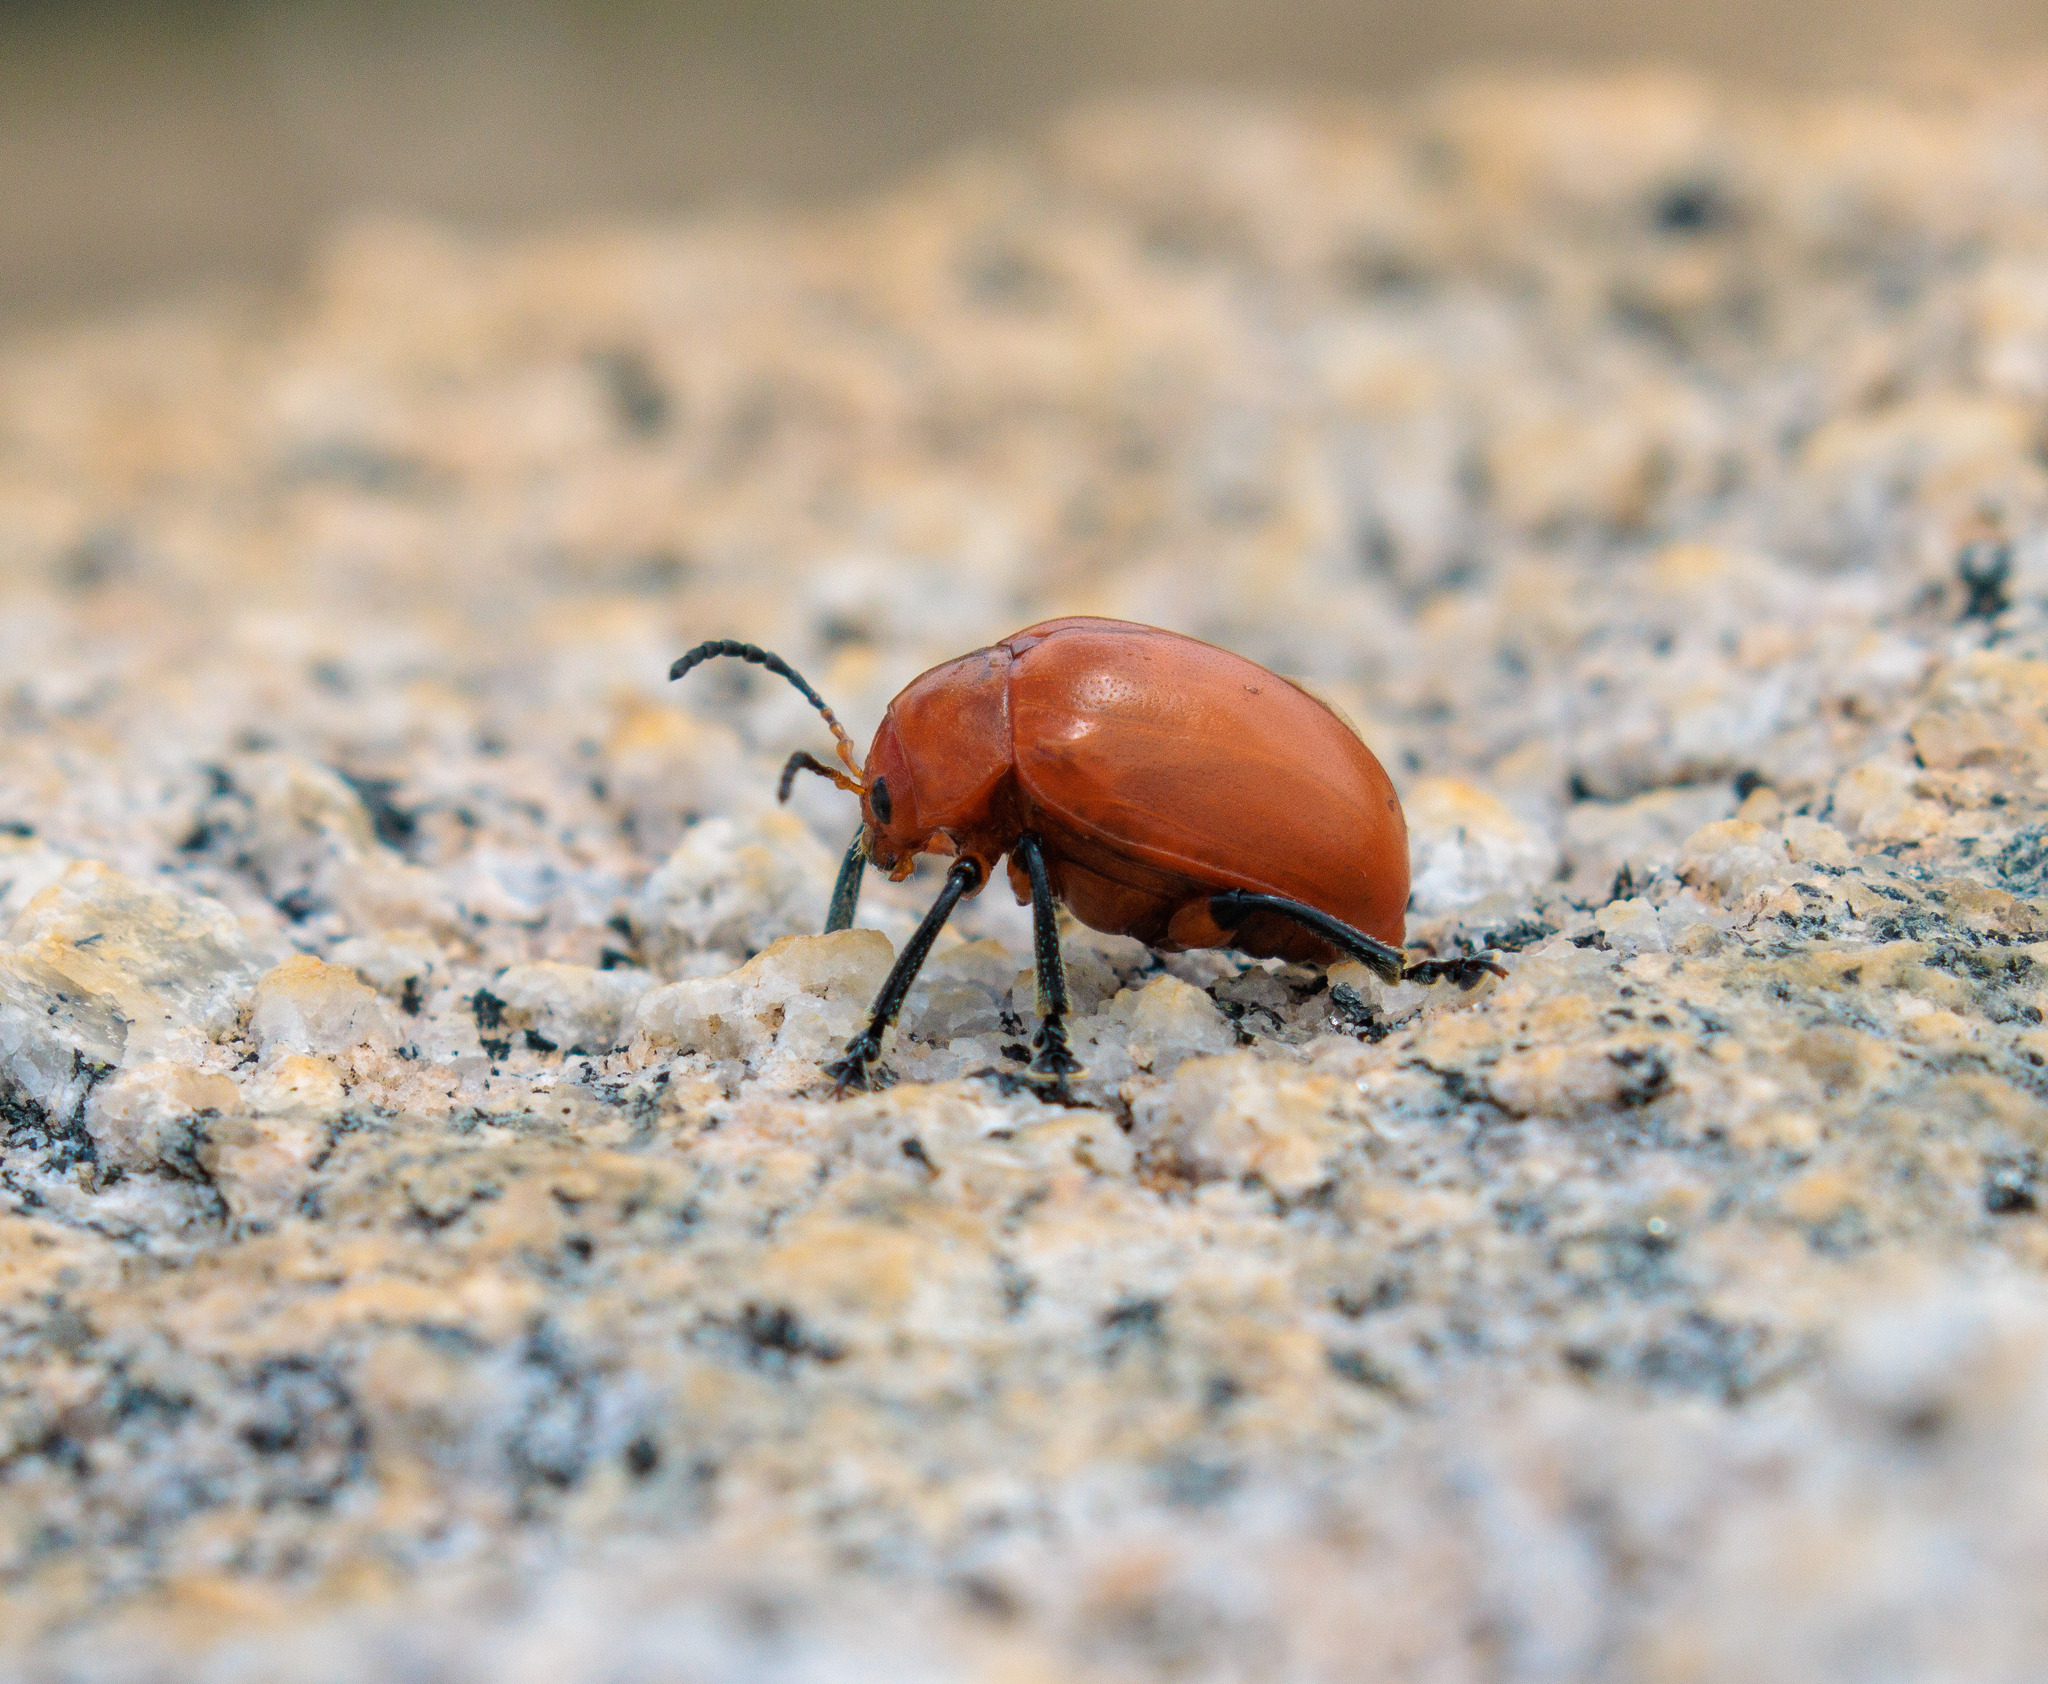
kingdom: Animalia
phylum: Arthropoda
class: Insecta
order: Coleoptera
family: Chrysomelidae
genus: Crimissa
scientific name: Crimissa cruralis
